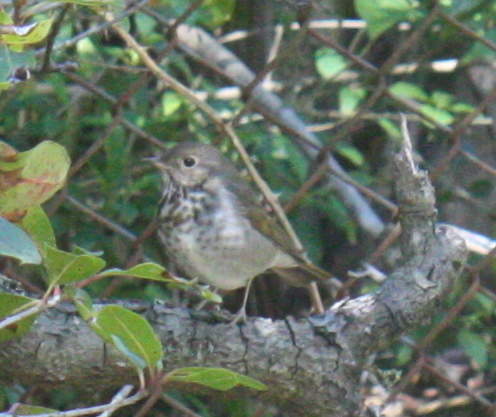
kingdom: Animalia
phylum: Chordata
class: Aves
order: Passeriformes
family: Turdidae
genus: Catharus
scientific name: Catharus guttatus
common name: Hermit thrush
